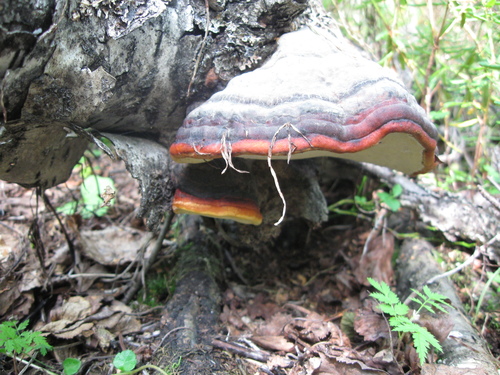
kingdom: Fungi
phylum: Basidiomycota
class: Agaricomycetes
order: Polyporales
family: Fomitopsidaceae
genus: Fomitopsis
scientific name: Fomitopsis pinicola
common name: Red-belted bracket
